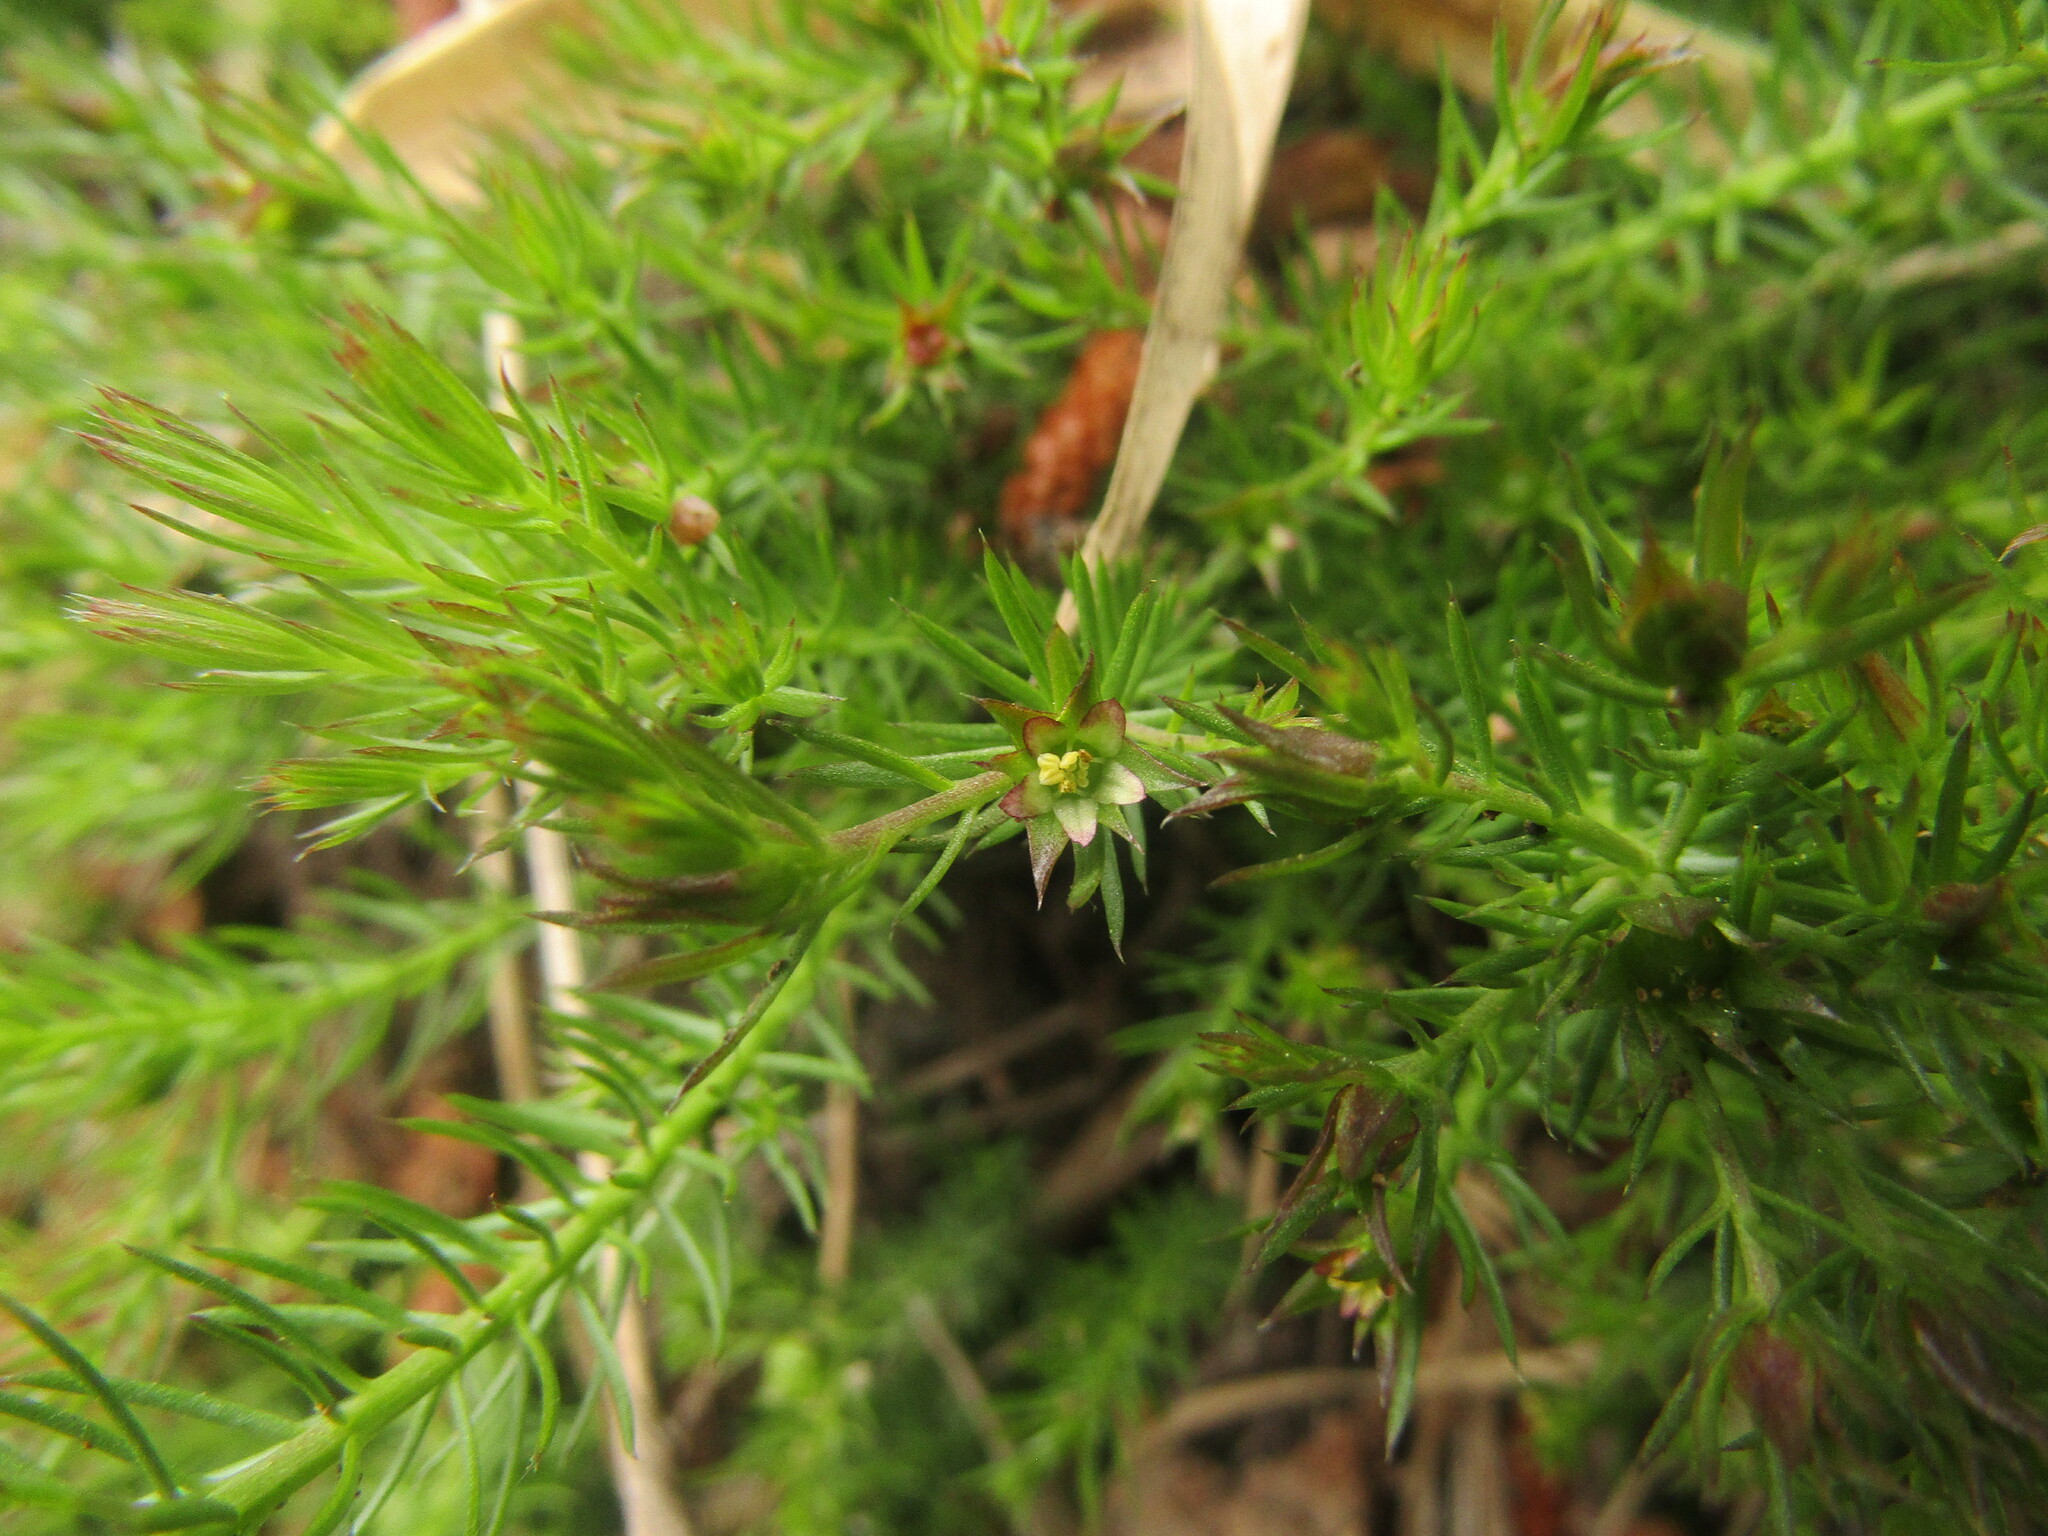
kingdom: Plantae
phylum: Tracheophyta
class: Magnoliopsida
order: Malpighiales
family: Linaceae
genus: Cliococca
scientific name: Cliococca selaginoides
